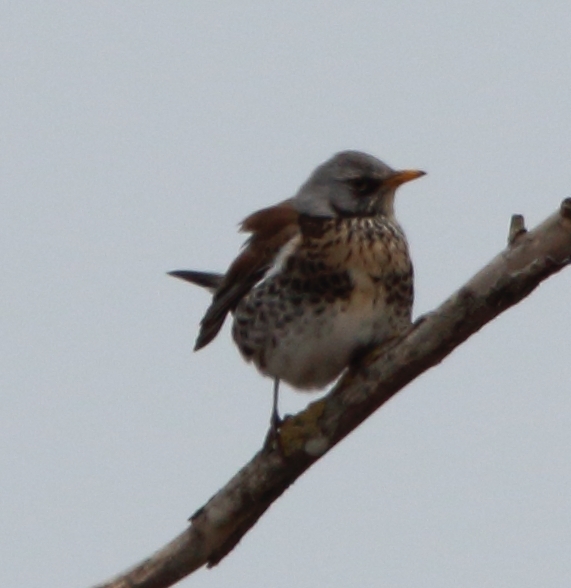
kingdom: Animalia
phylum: Chordata
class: Aves
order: Passeriformes
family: Turdidae
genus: Turdus
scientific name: Turdus pilaris
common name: Fieldfare
